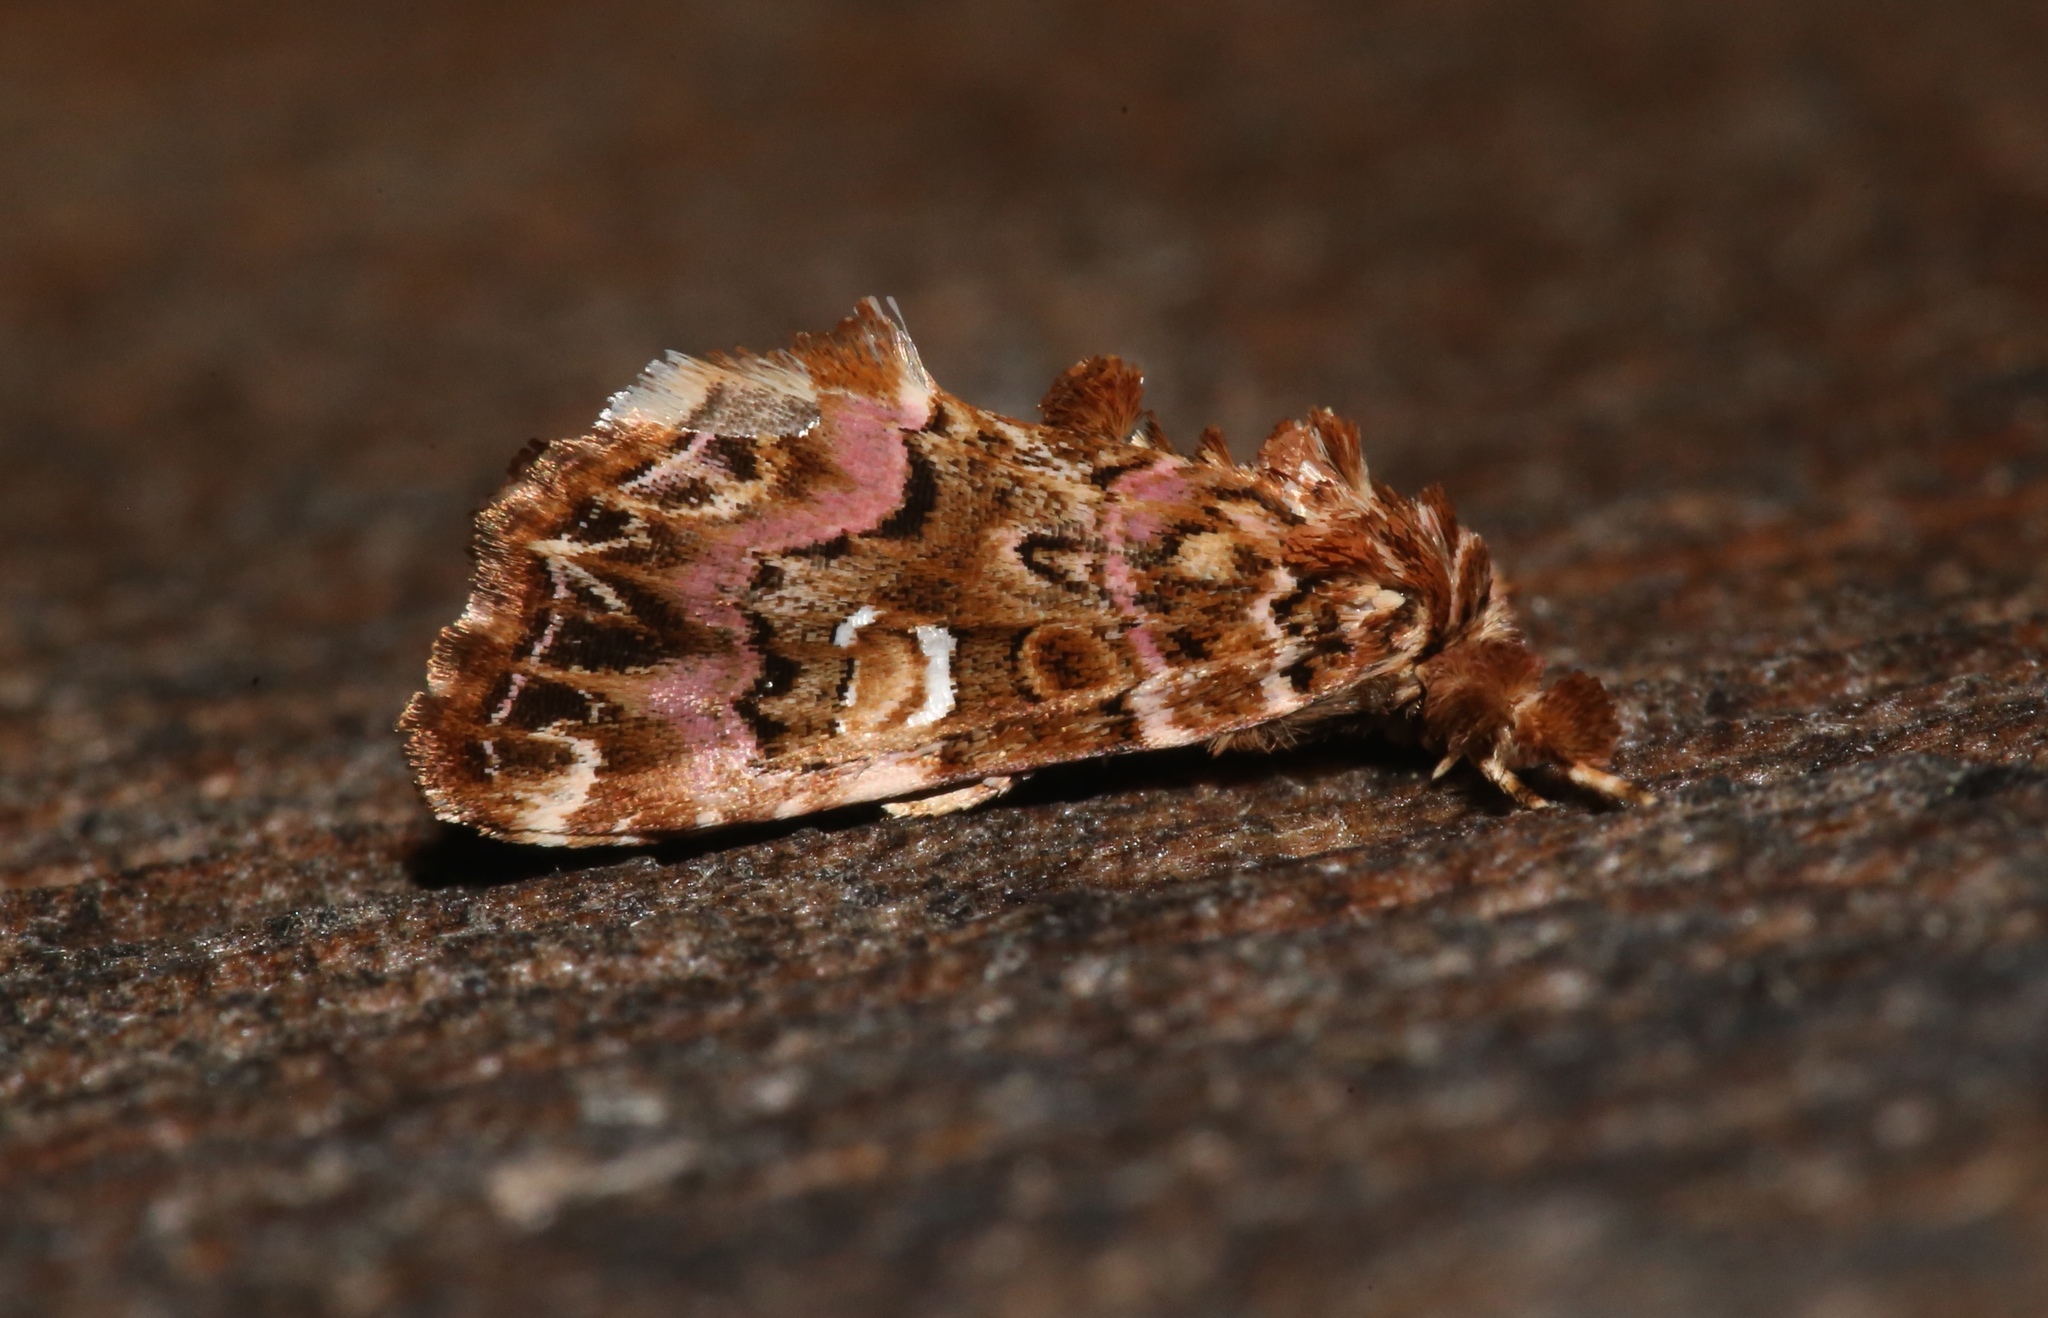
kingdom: Animalia
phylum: Arthropoda
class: Insecta
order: Lepidoptera
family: Noctuidae
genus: Callopistria
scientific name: Callopistria mollissima
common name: Pink-shaded fern moth
